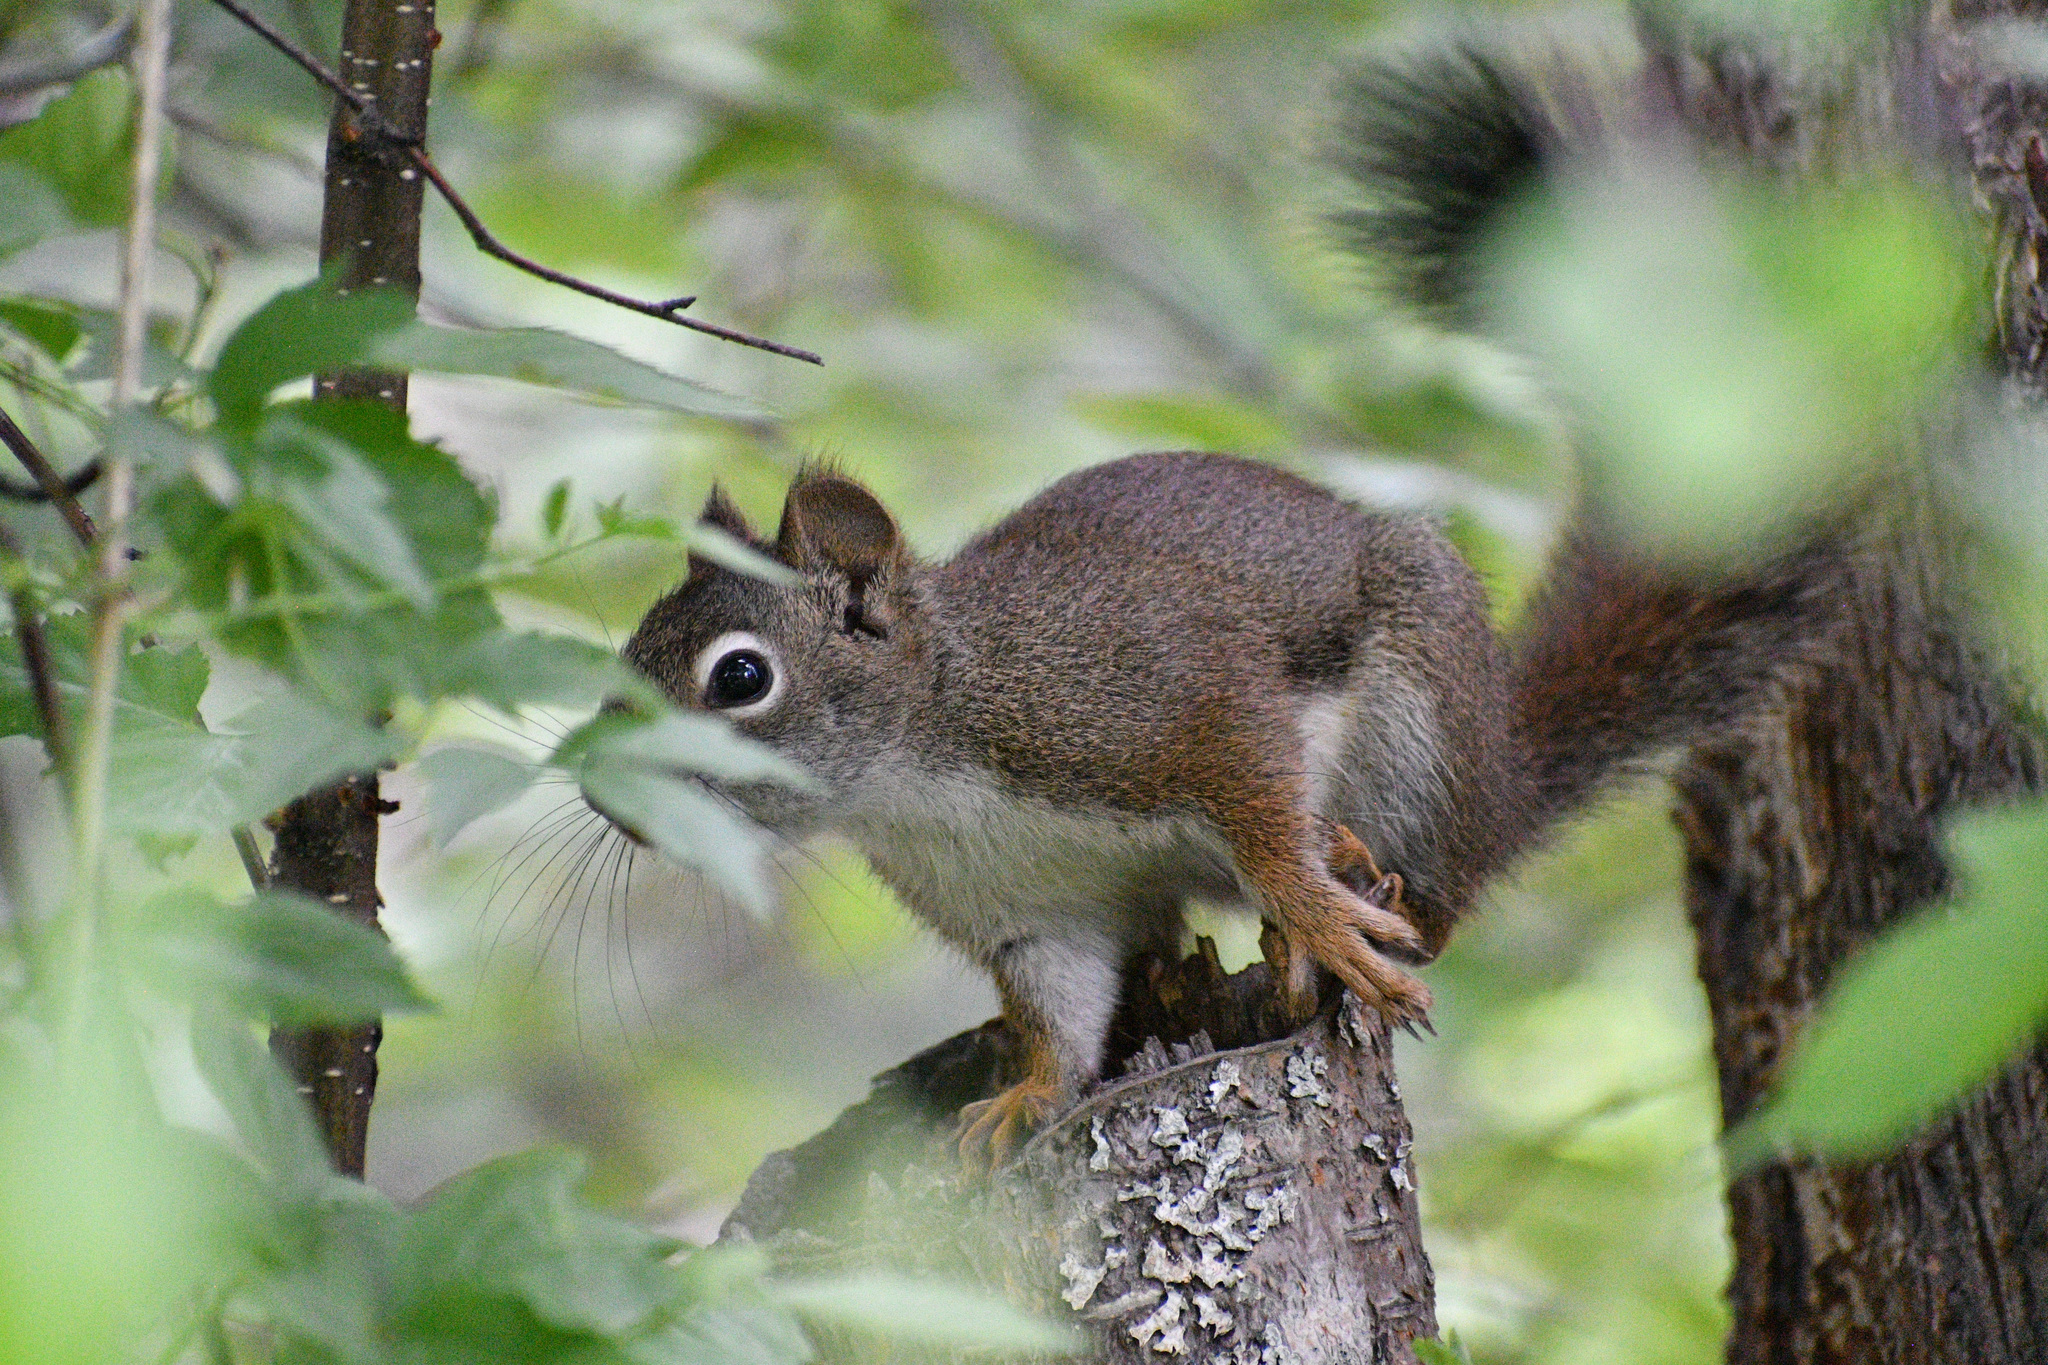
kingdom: Animalia
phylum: Chordata
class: Mammalia
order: Rodentia
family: Sciuridae
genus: Tamiasciurus
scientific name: Tamiasciurus hudsonicus
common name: Red squirrel
